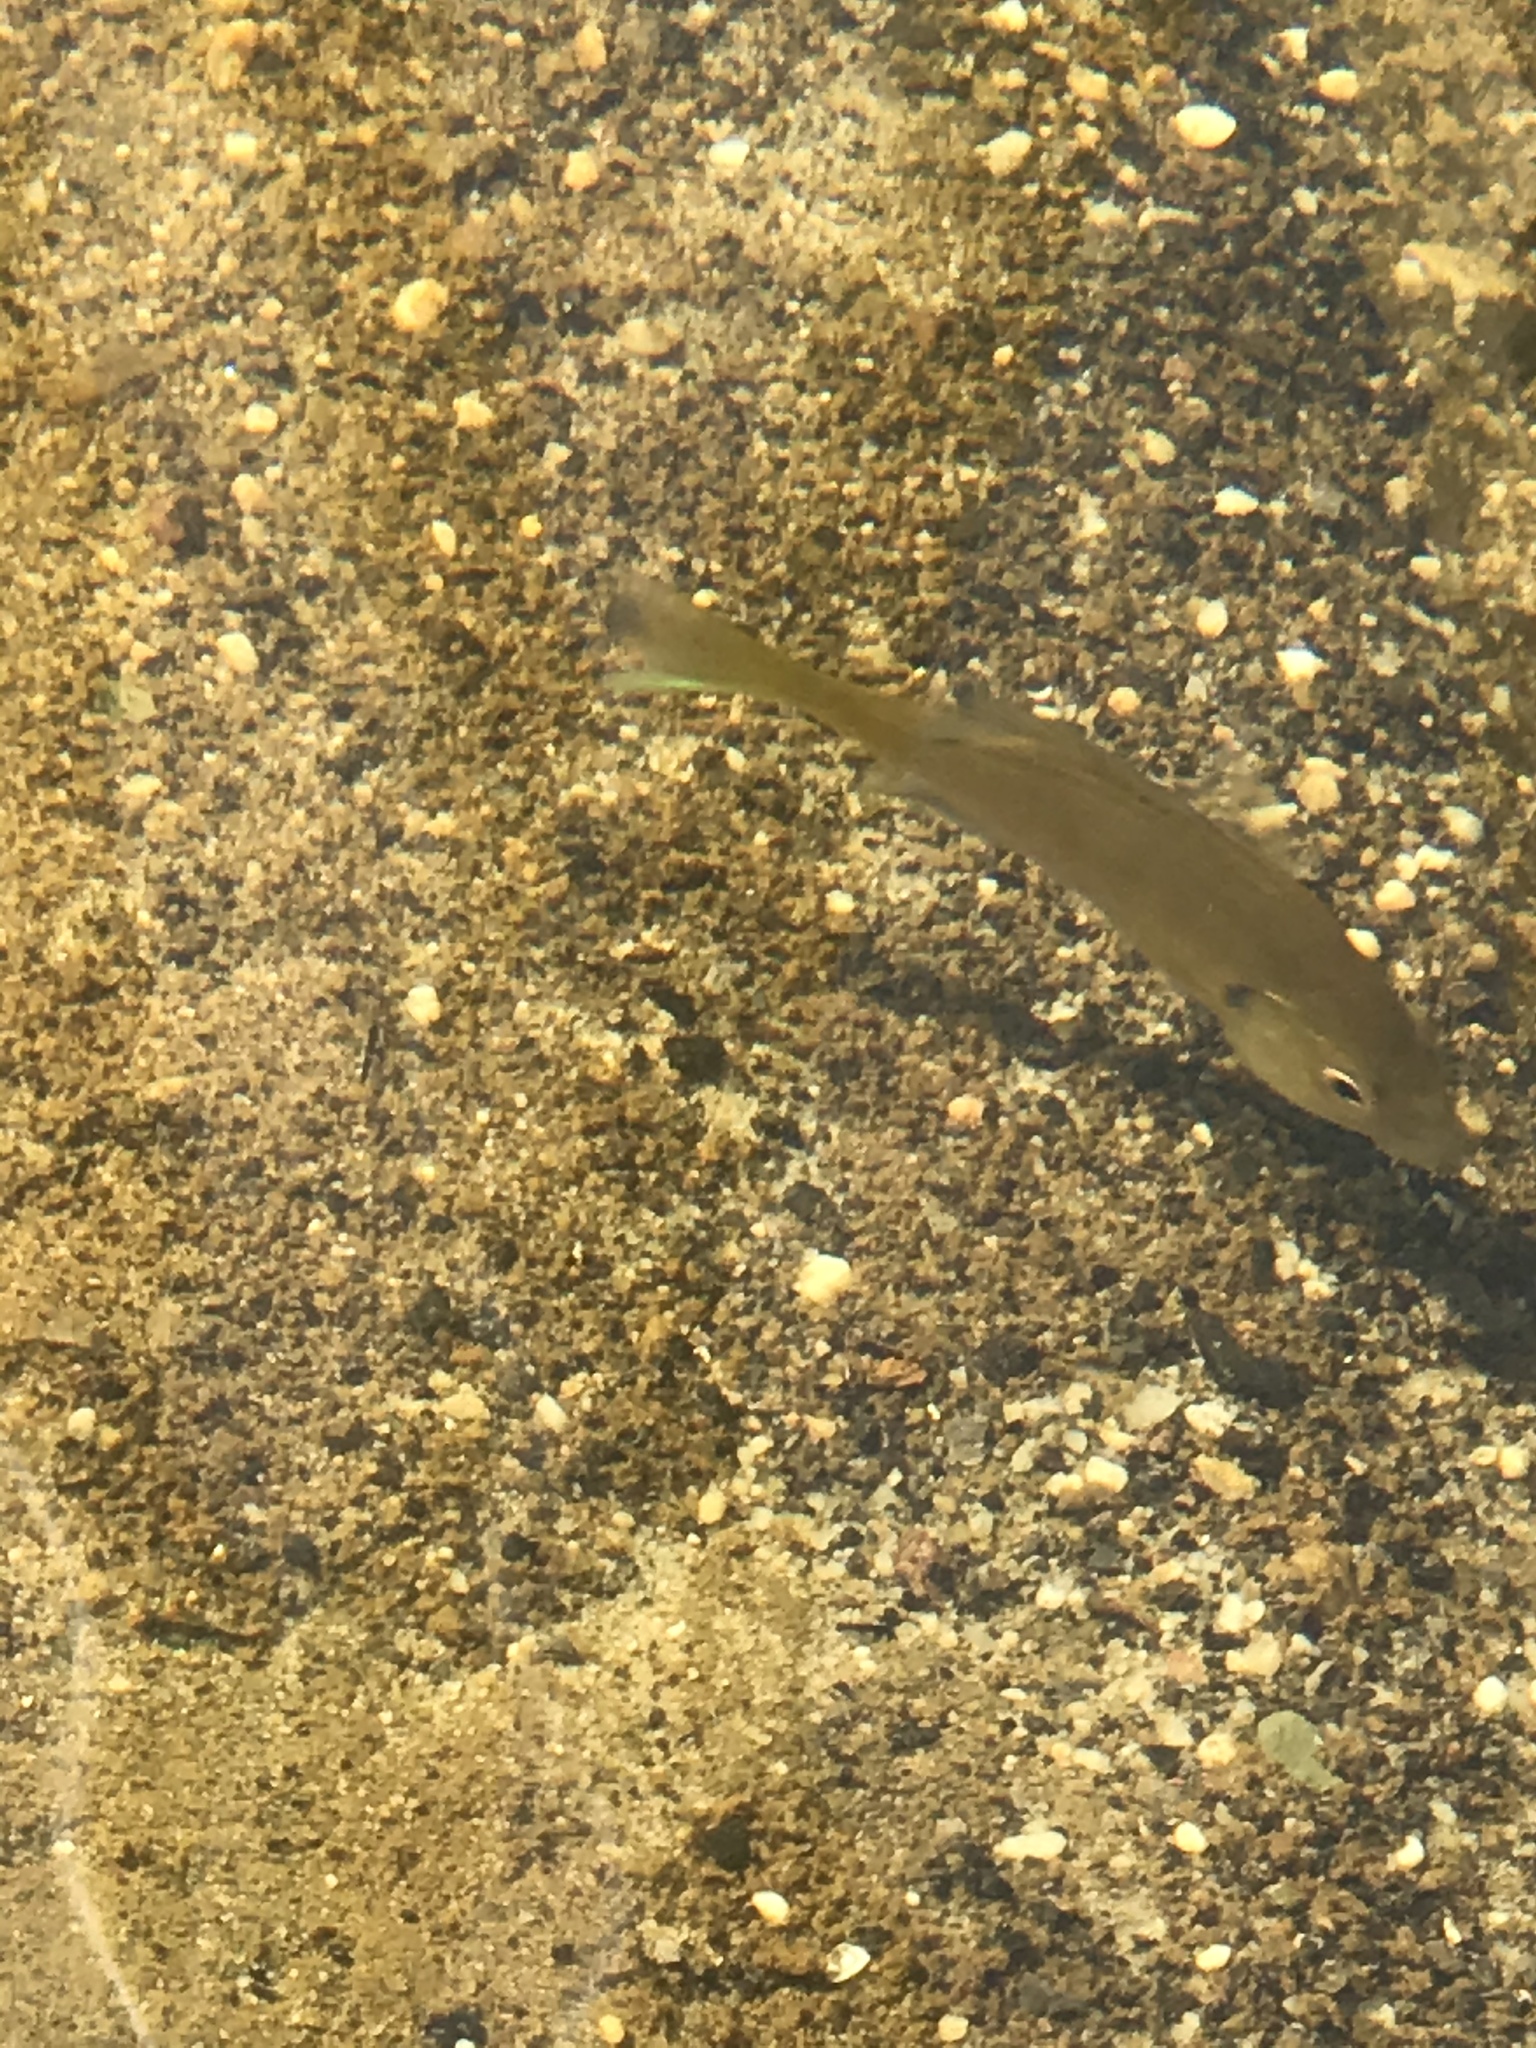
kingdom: Animalia
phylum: Chordata
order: Perciformes
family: Centrarchidae
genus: Lepomis
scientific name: Lepomis macrochirus
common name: Bluegill
